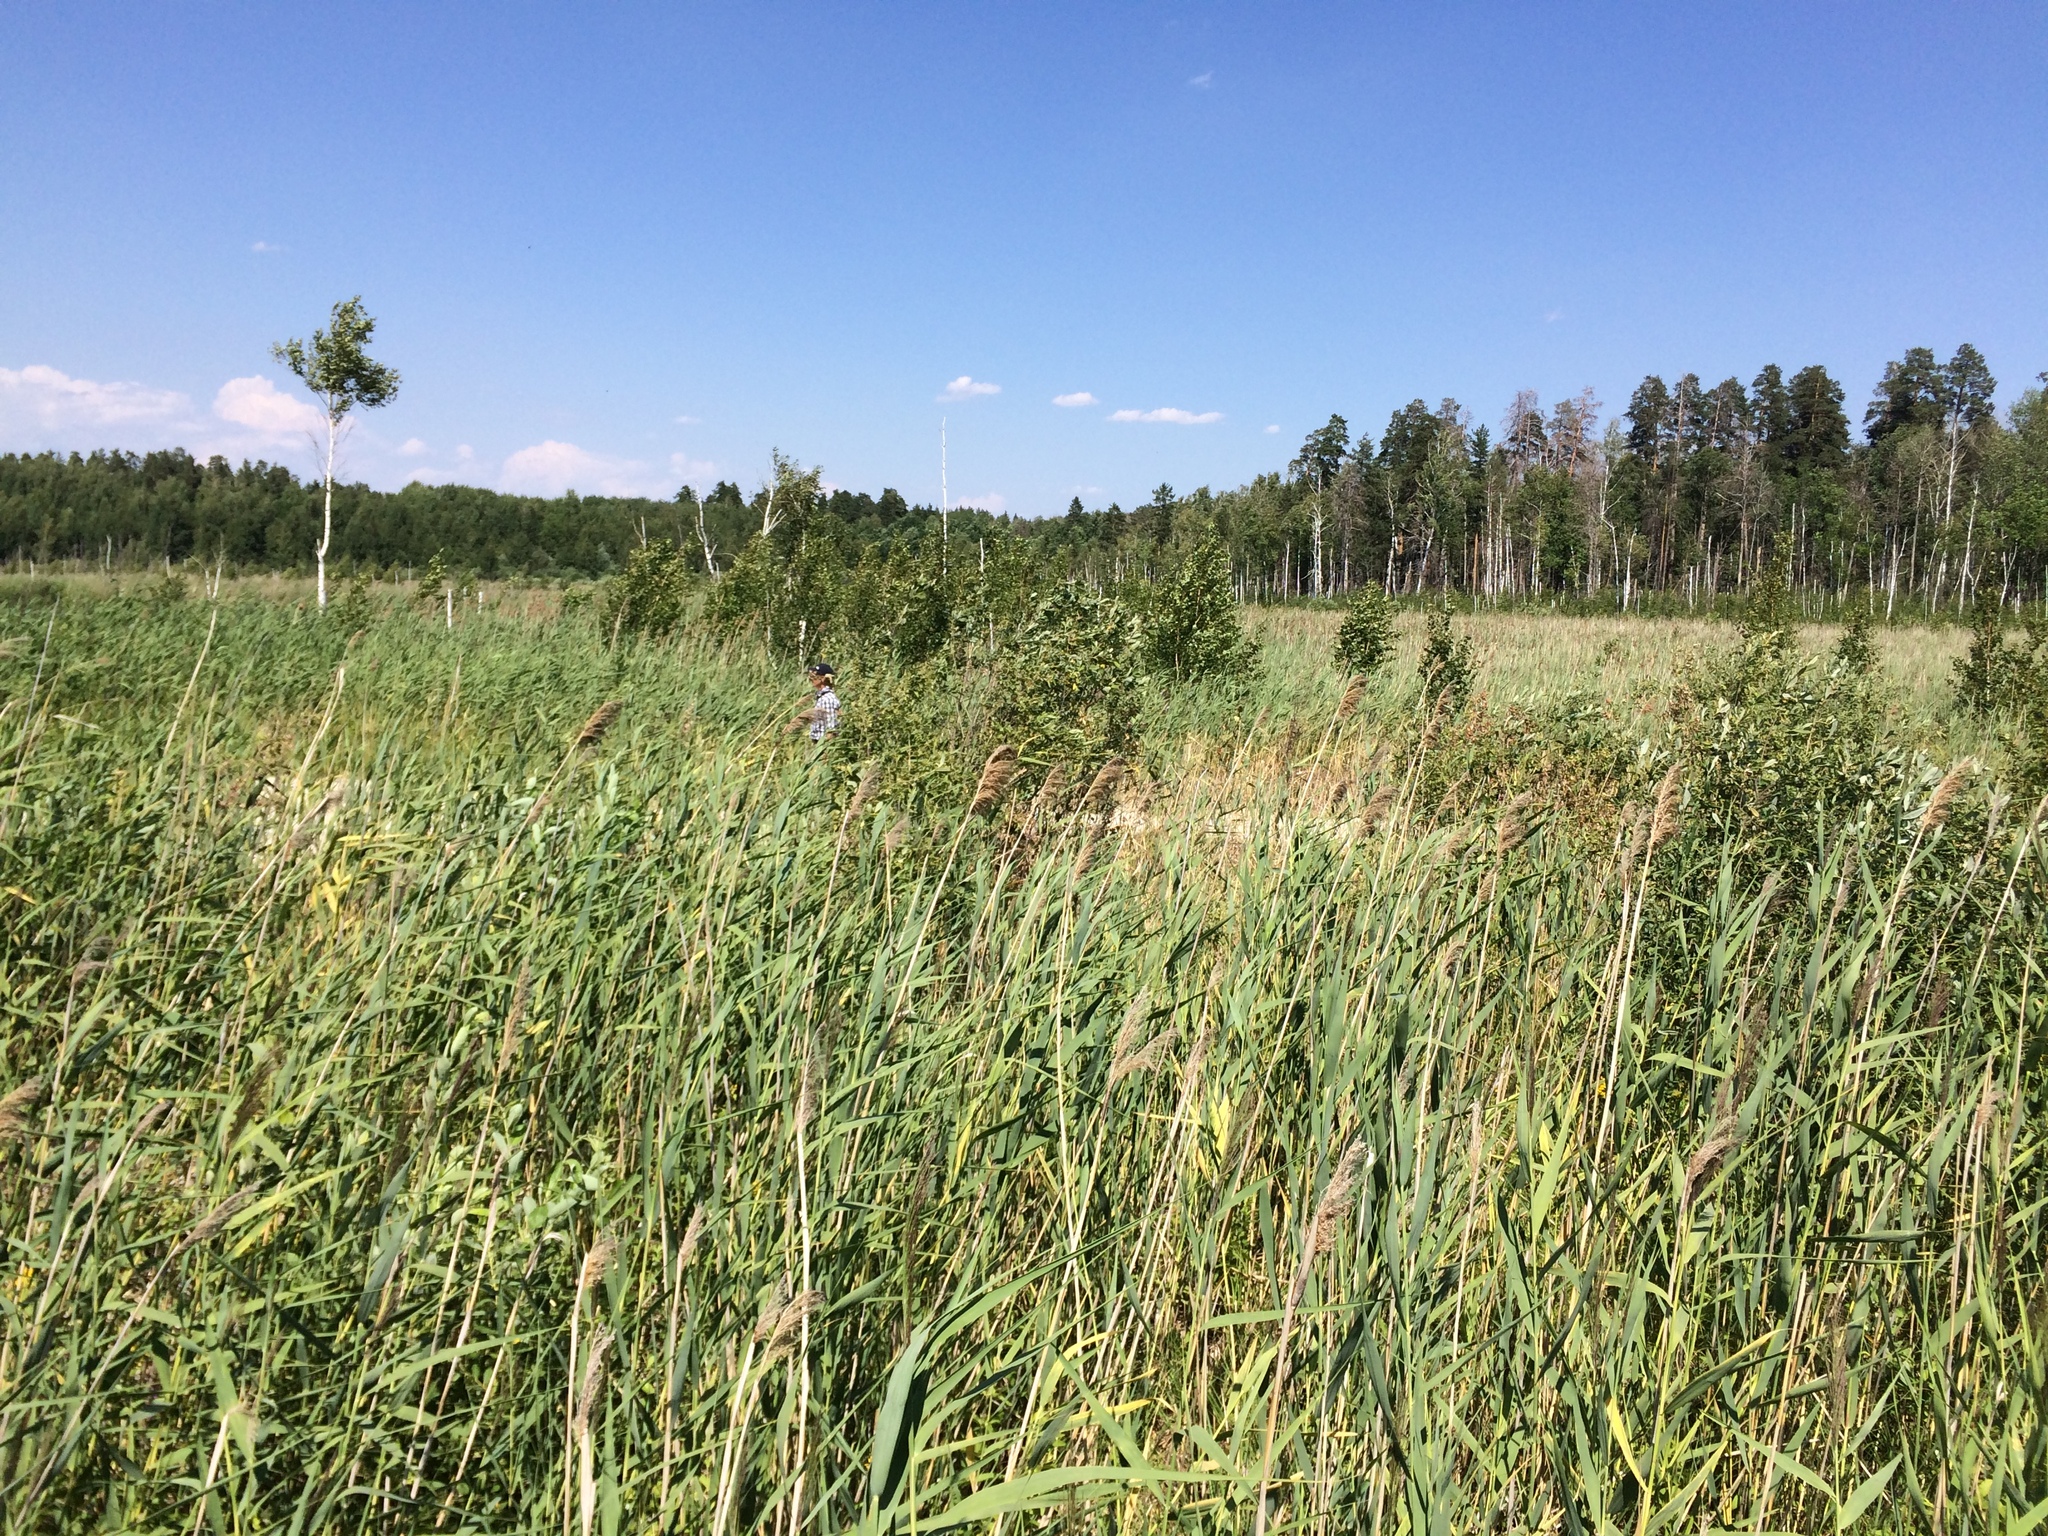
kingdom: Plantae
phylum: Tracheophyta
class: Liliopsida
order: Poales
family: Poaceae
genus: Phragmites
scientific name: Phragmites australis
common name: Common reed
